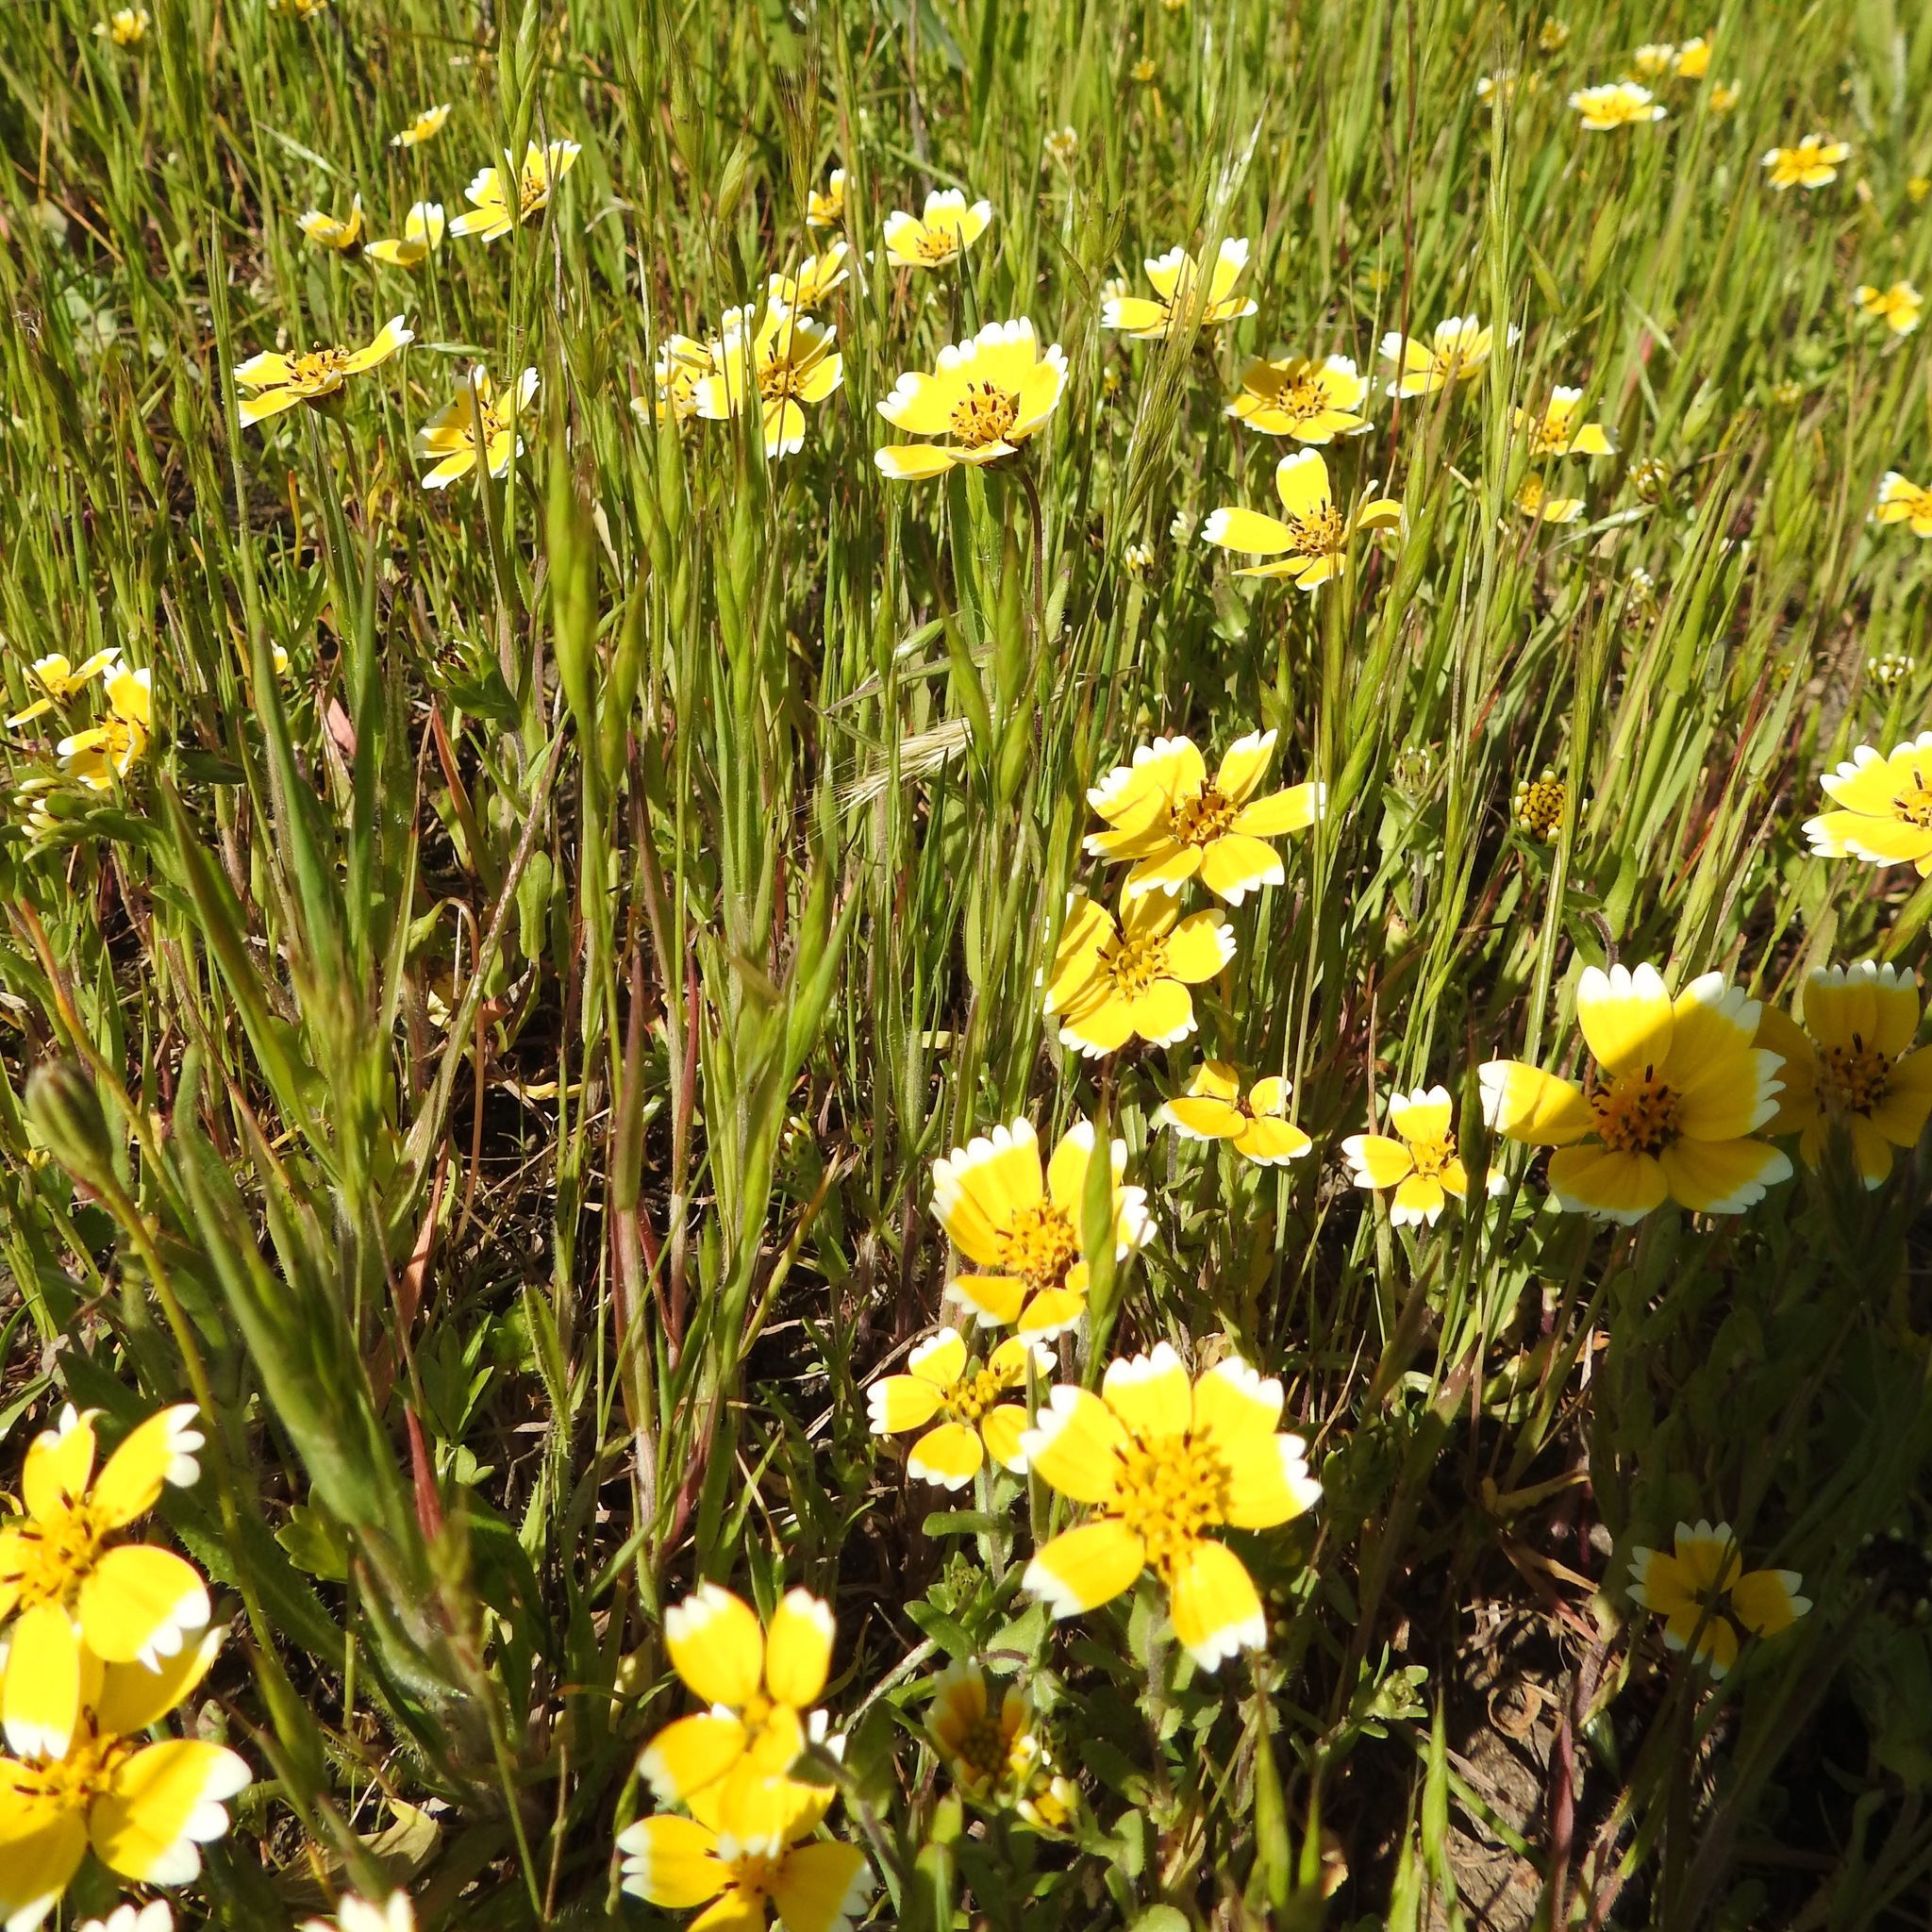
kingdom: Plantae
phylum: Tracheophyta
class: Magnoliopsida
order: Asterales
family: Asteraceae
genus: Layia
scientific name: Layia chrysanthemoides
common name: Smooth layia
